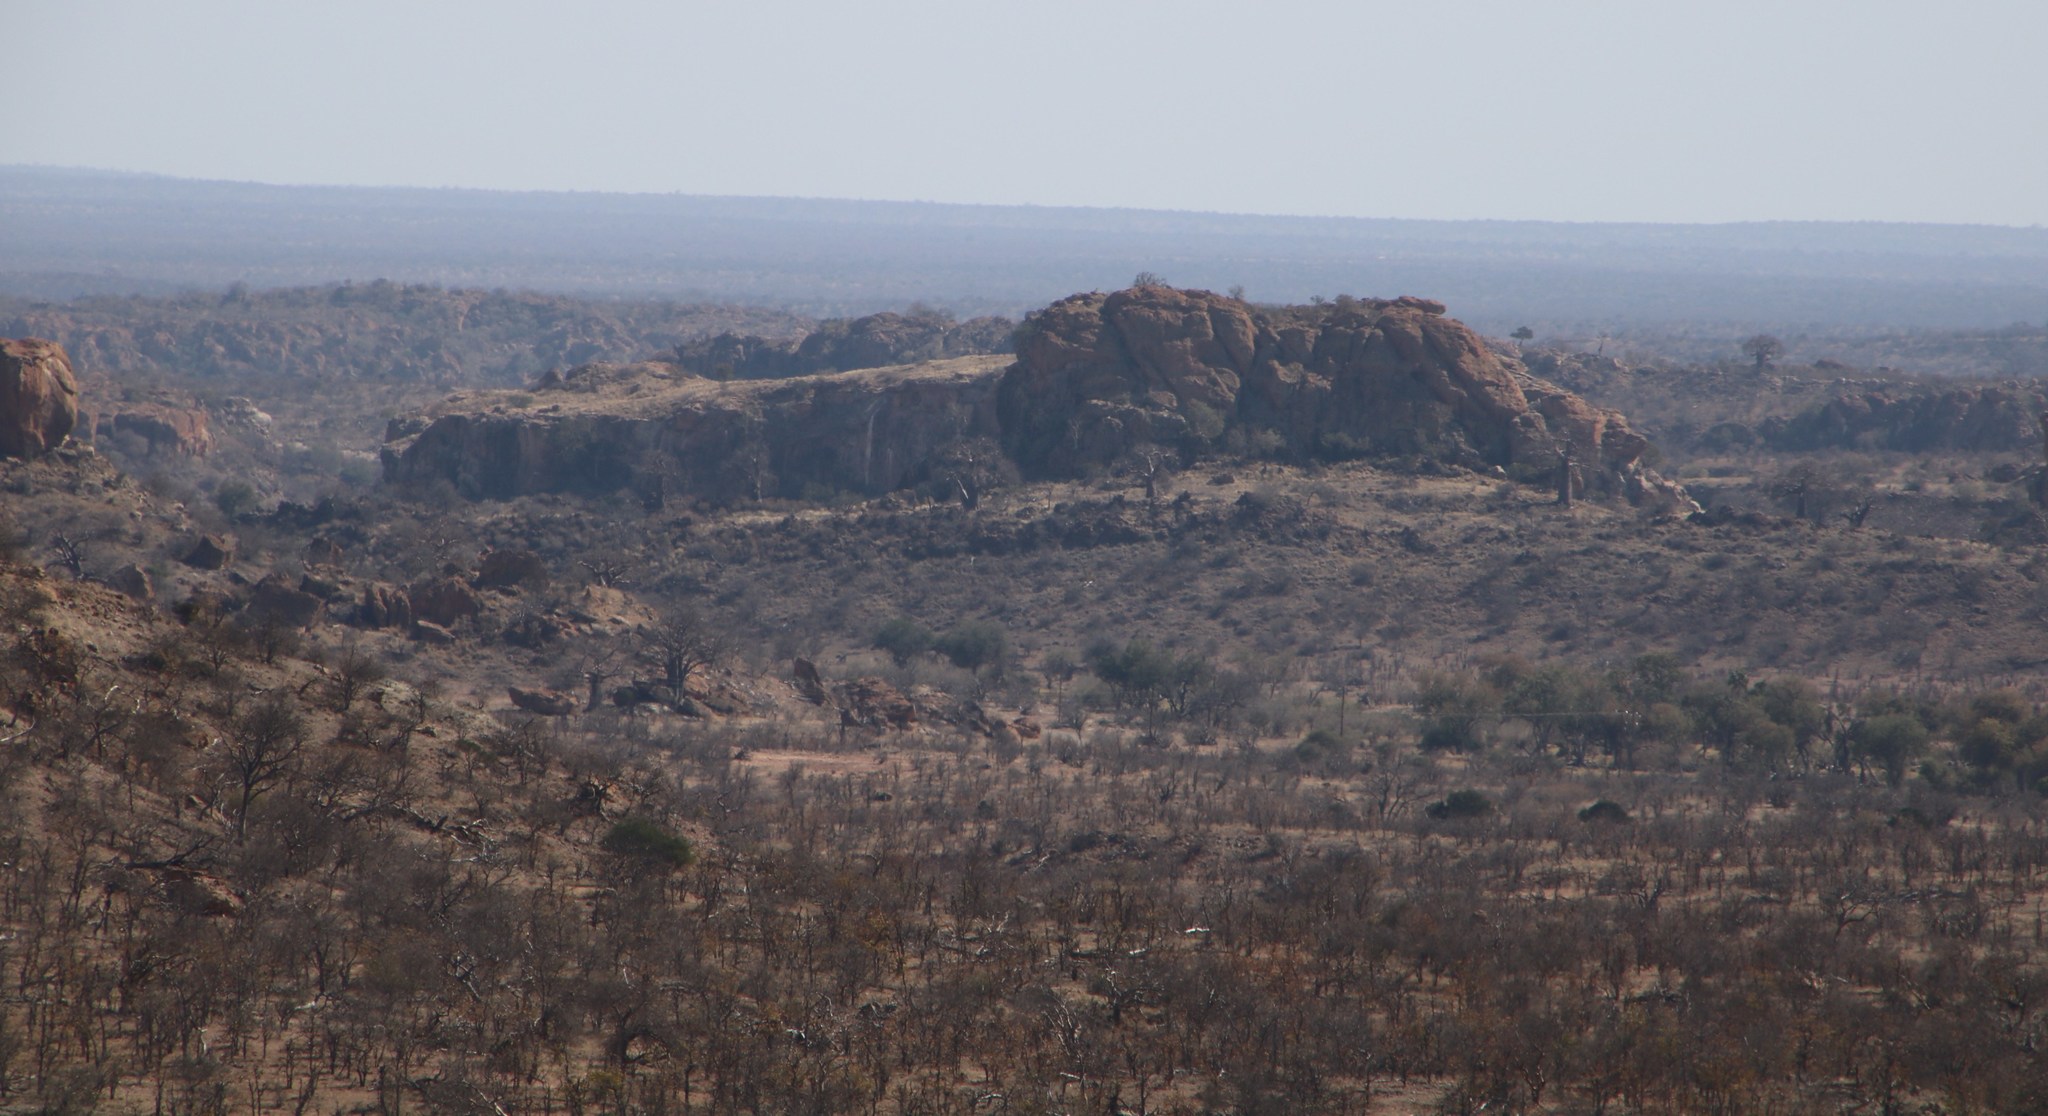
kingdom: Plantae
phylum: Tracheophyta
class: Magnoliopsida
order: Malvales
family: Malvaceae
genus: Adansonia
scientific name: Adansonia digitata
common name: Dead-rat-tree
